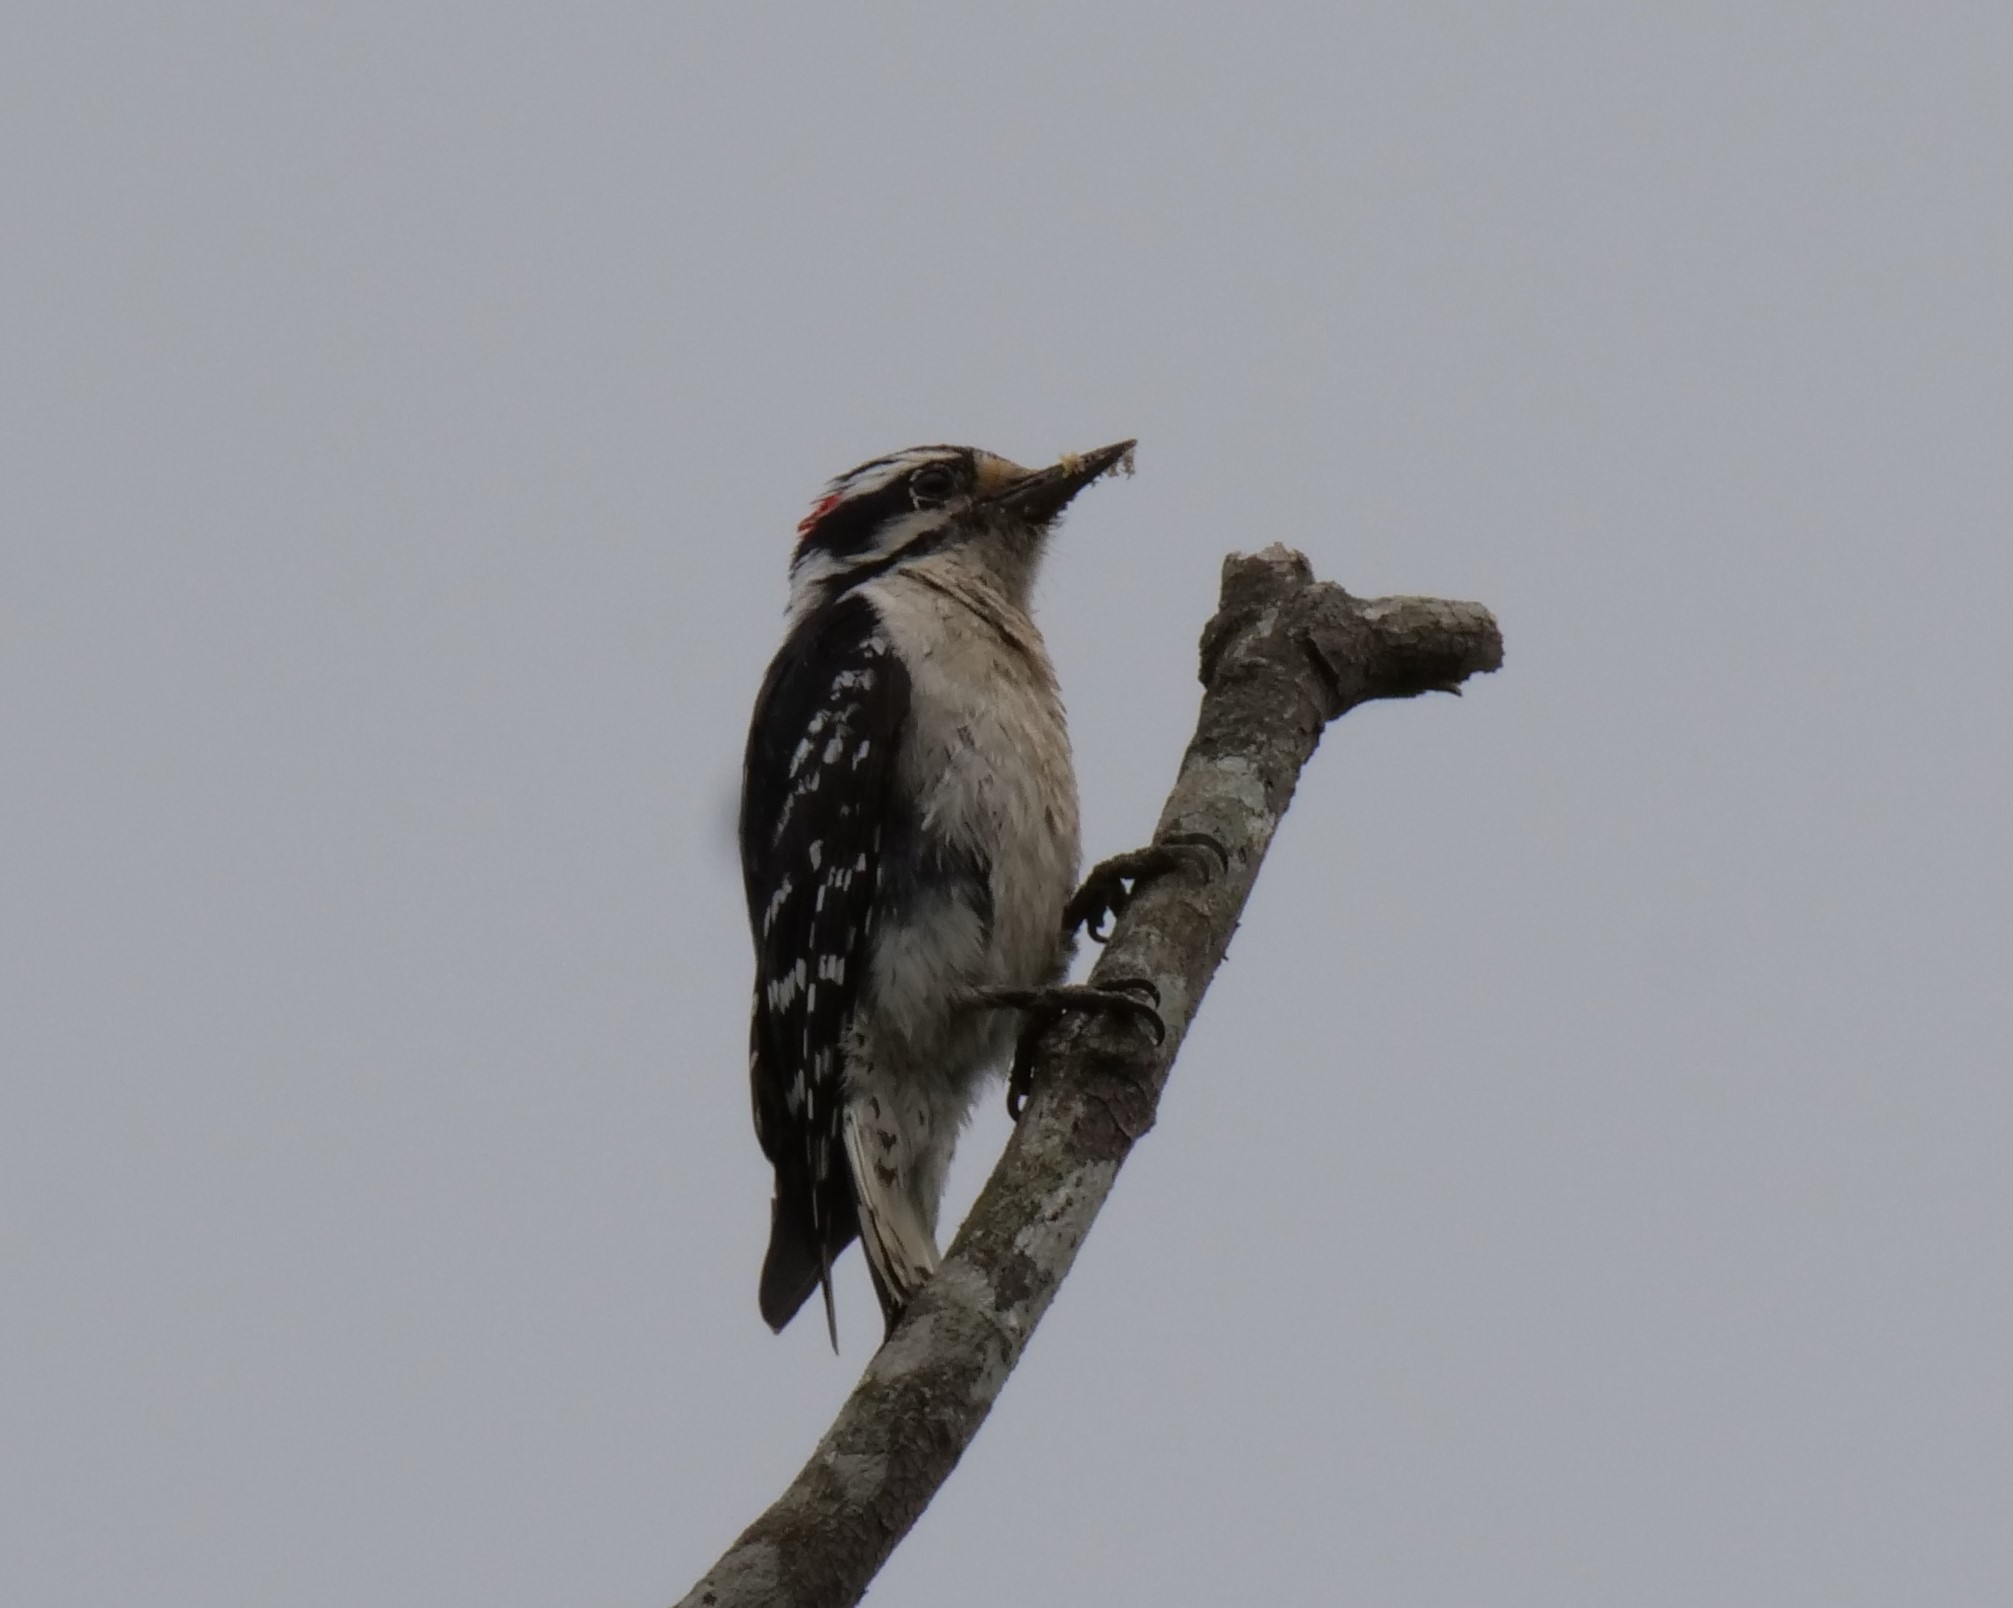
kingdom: Animalia
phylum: Chordata
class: Aves
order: Piciformes
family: Picidae
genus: Dryobates
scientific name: Dryobates pubescens
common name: Downy woodpecker
